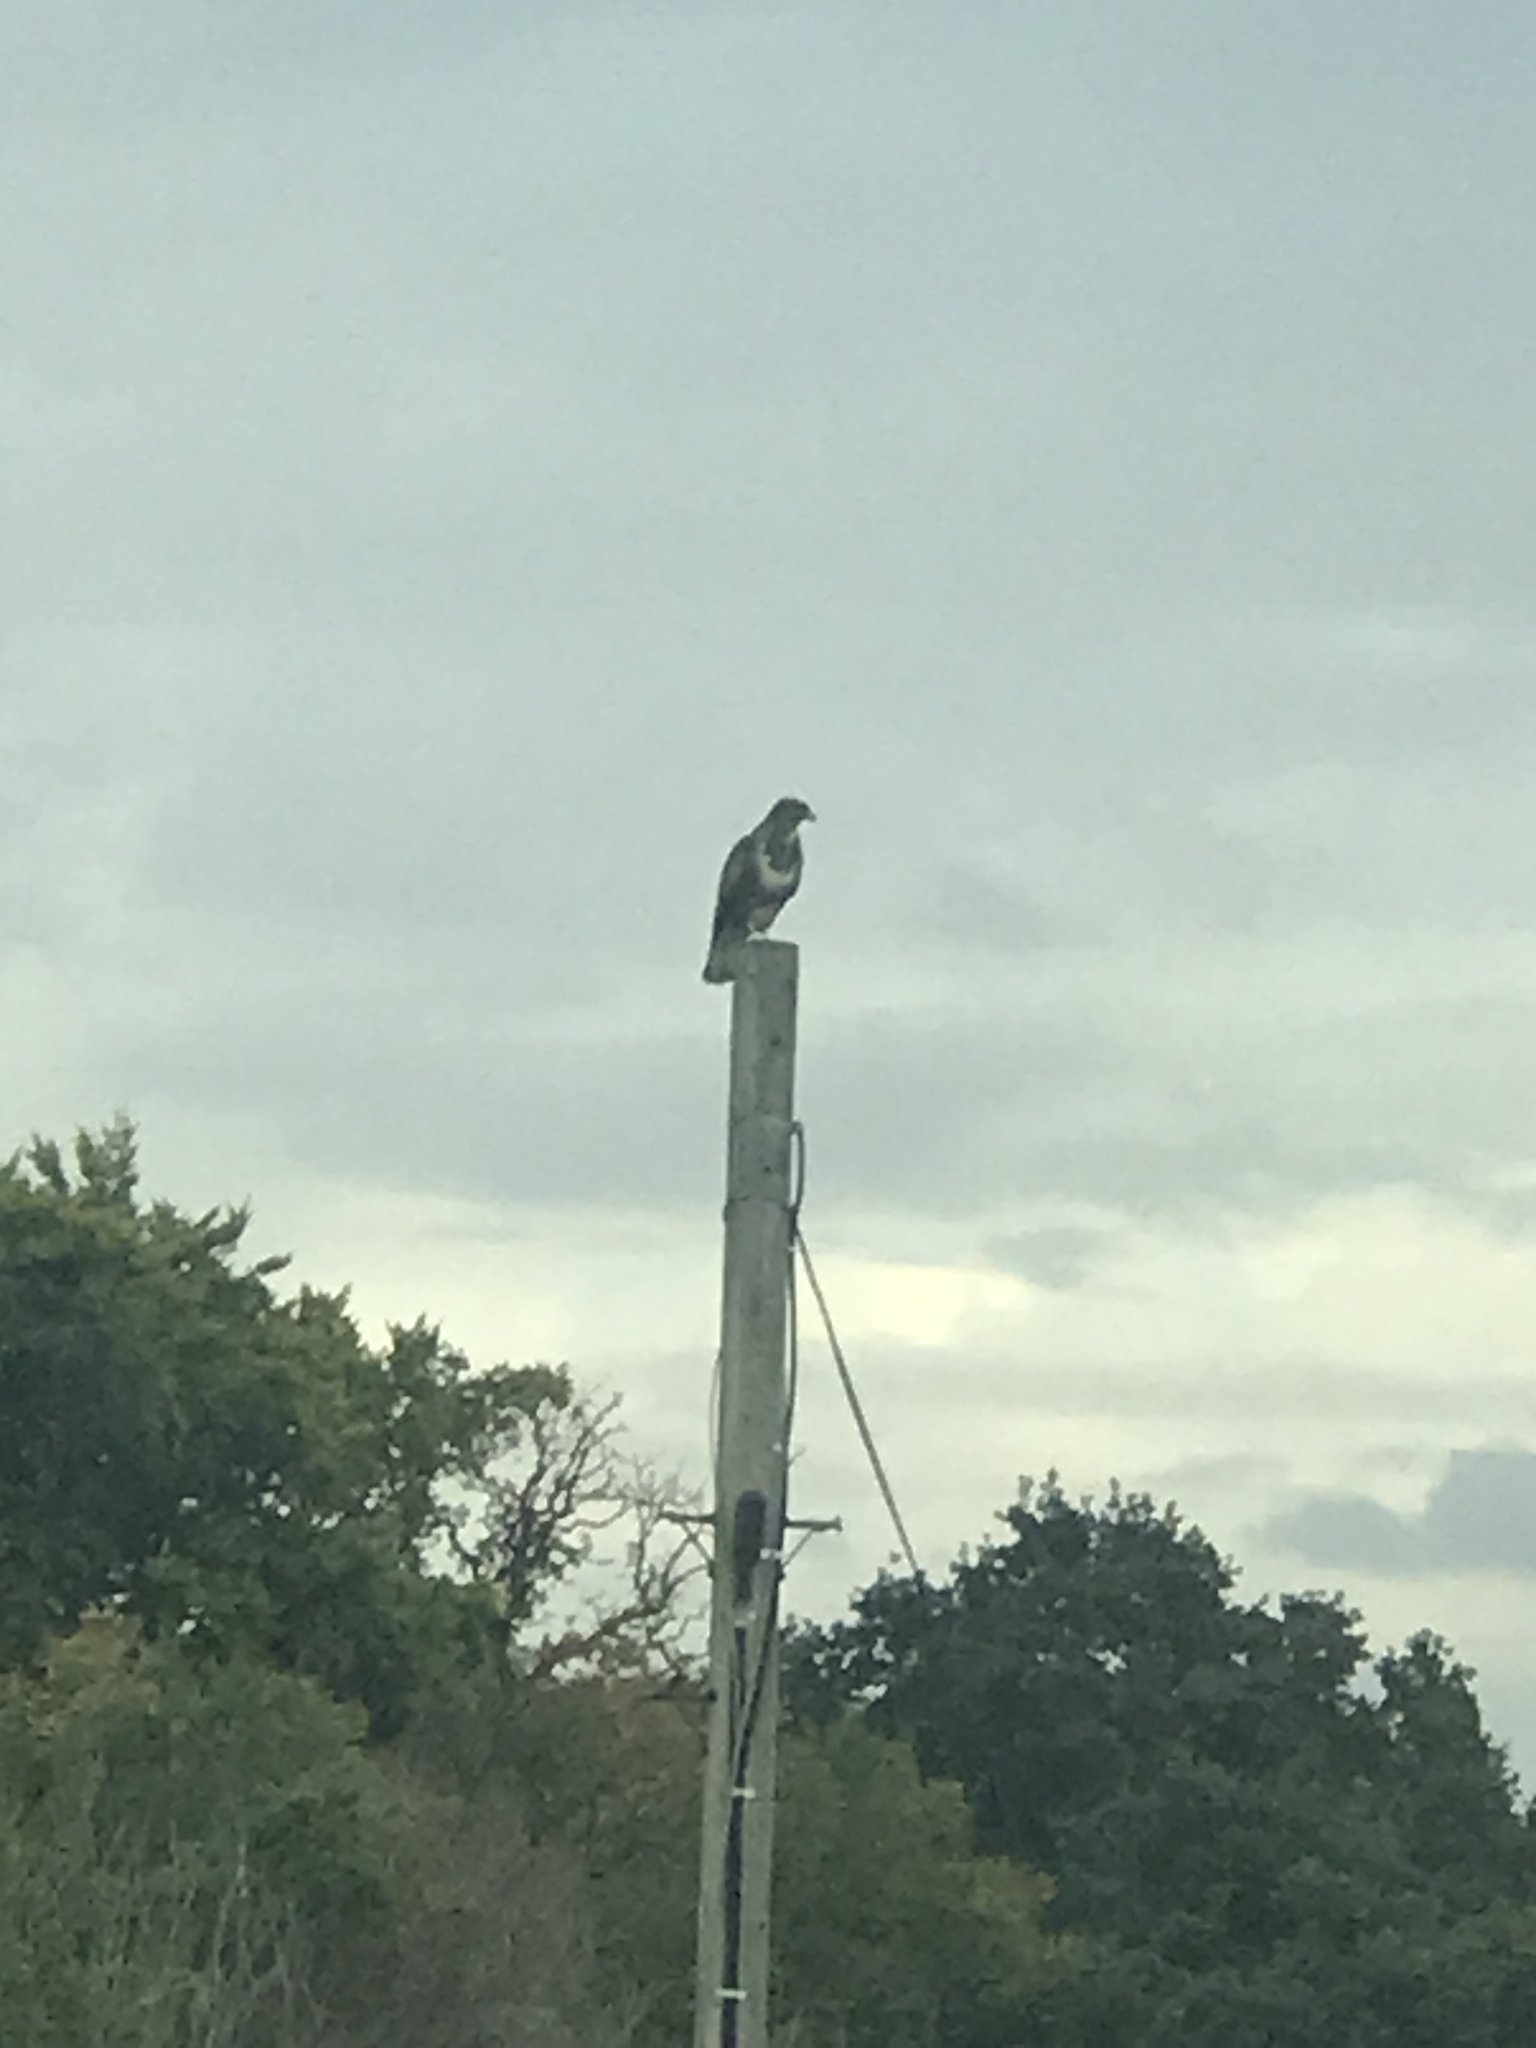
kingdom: Animalia
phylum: Chordata
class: Aves
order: Accipitriformes
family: Accipitridae
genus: Buteo
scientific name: Buteo buteo
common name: Common buzzard
